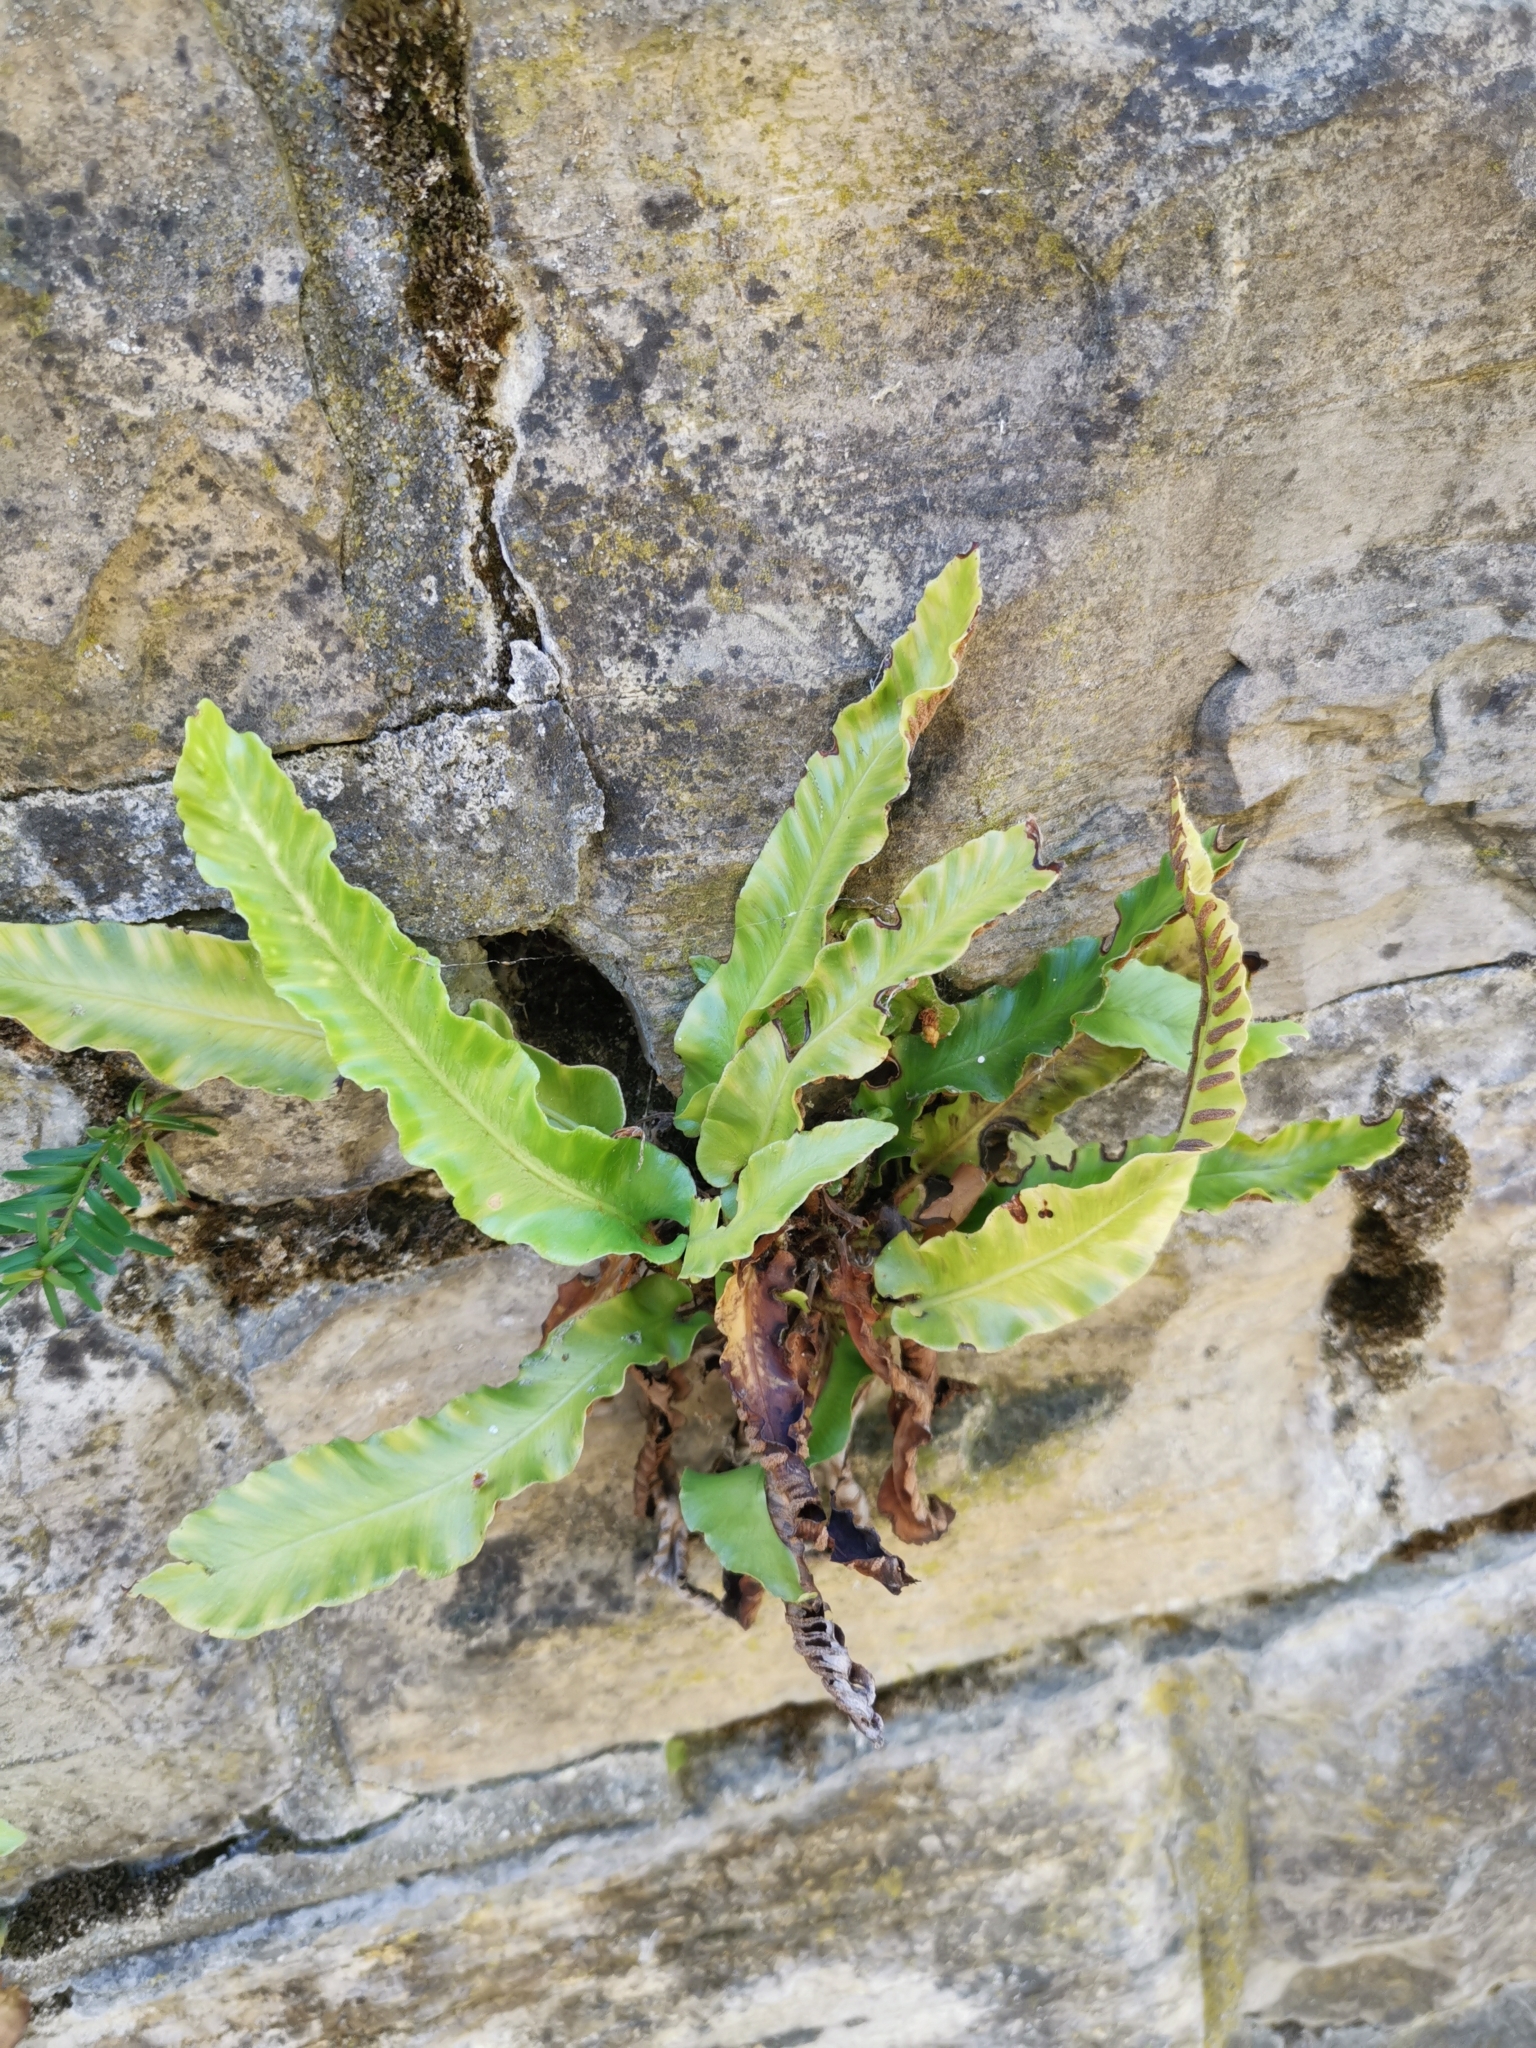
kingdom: Plantae
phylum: Tracheophyta
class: Polypodiopsida
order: Polypodiales
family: Aspleniaceae
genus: Asplenium
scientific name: Asplenium scolopendrium
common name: Hart's-tongue fern
